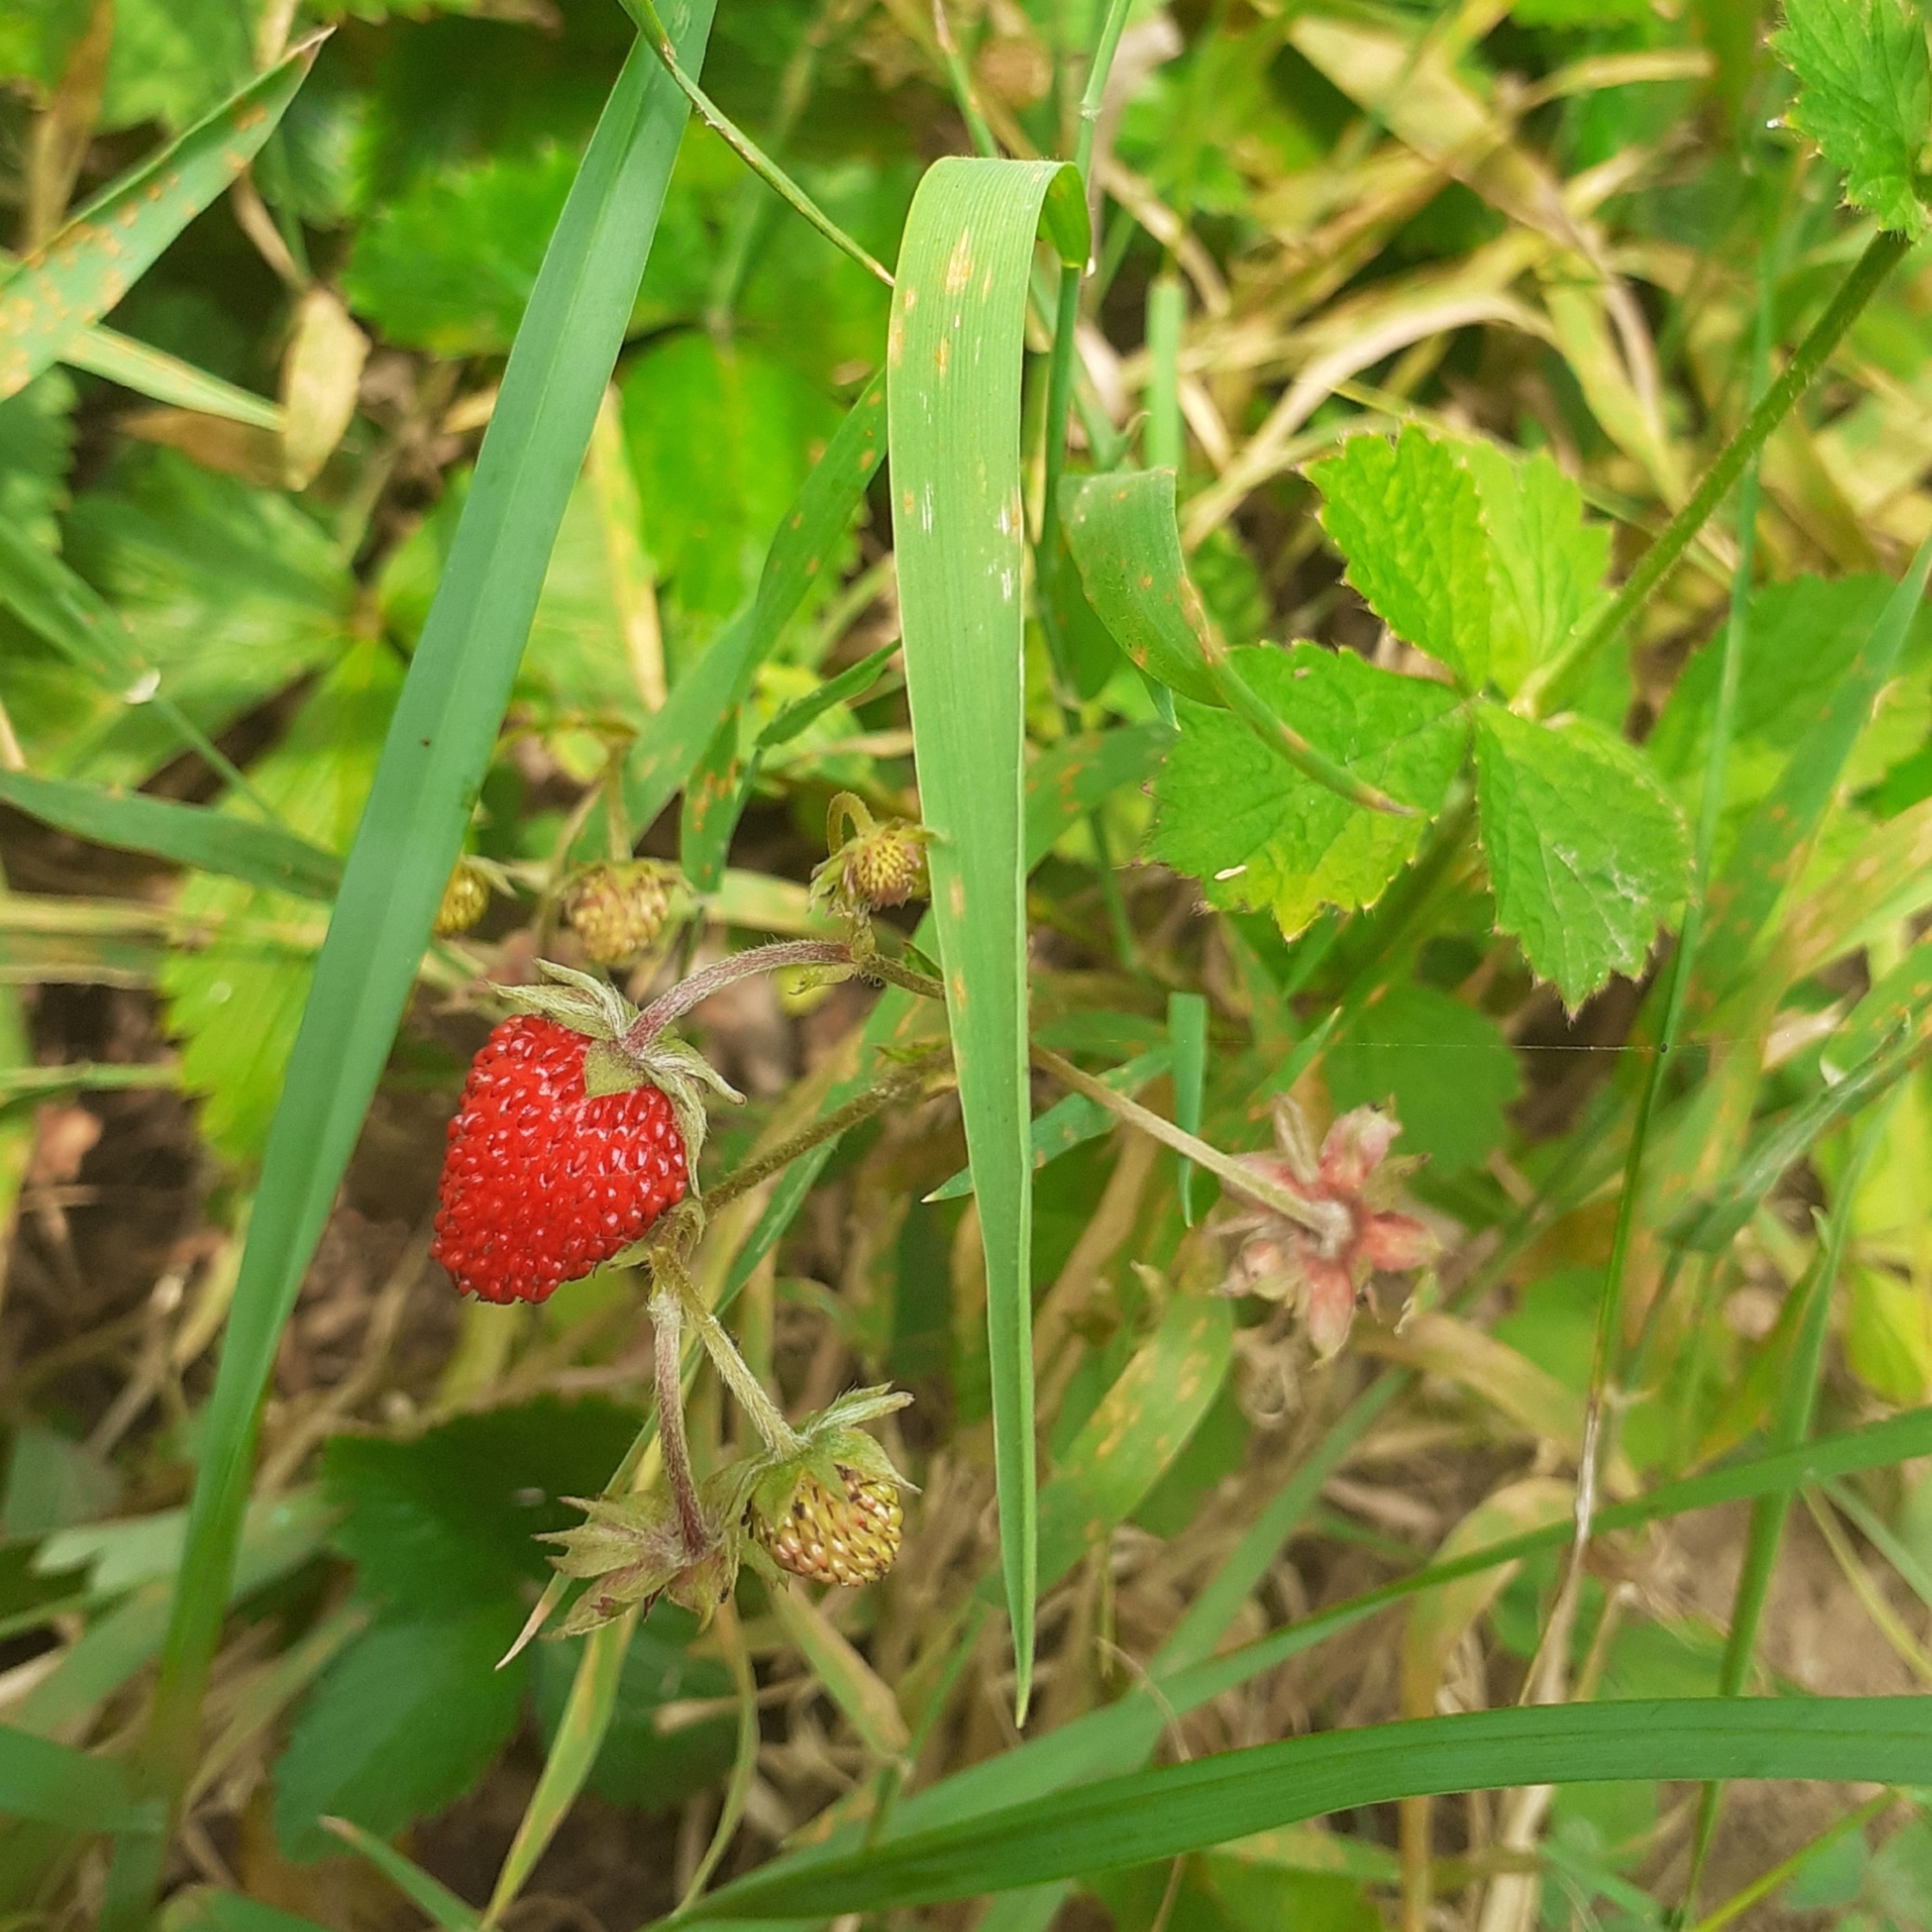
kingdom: Plantae
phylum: Tracheophyta
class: Magnoliopsida
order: Rosales
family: Rosaceae
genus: Fragaria
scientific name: Fragaria vesca
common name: Wild strawberry
